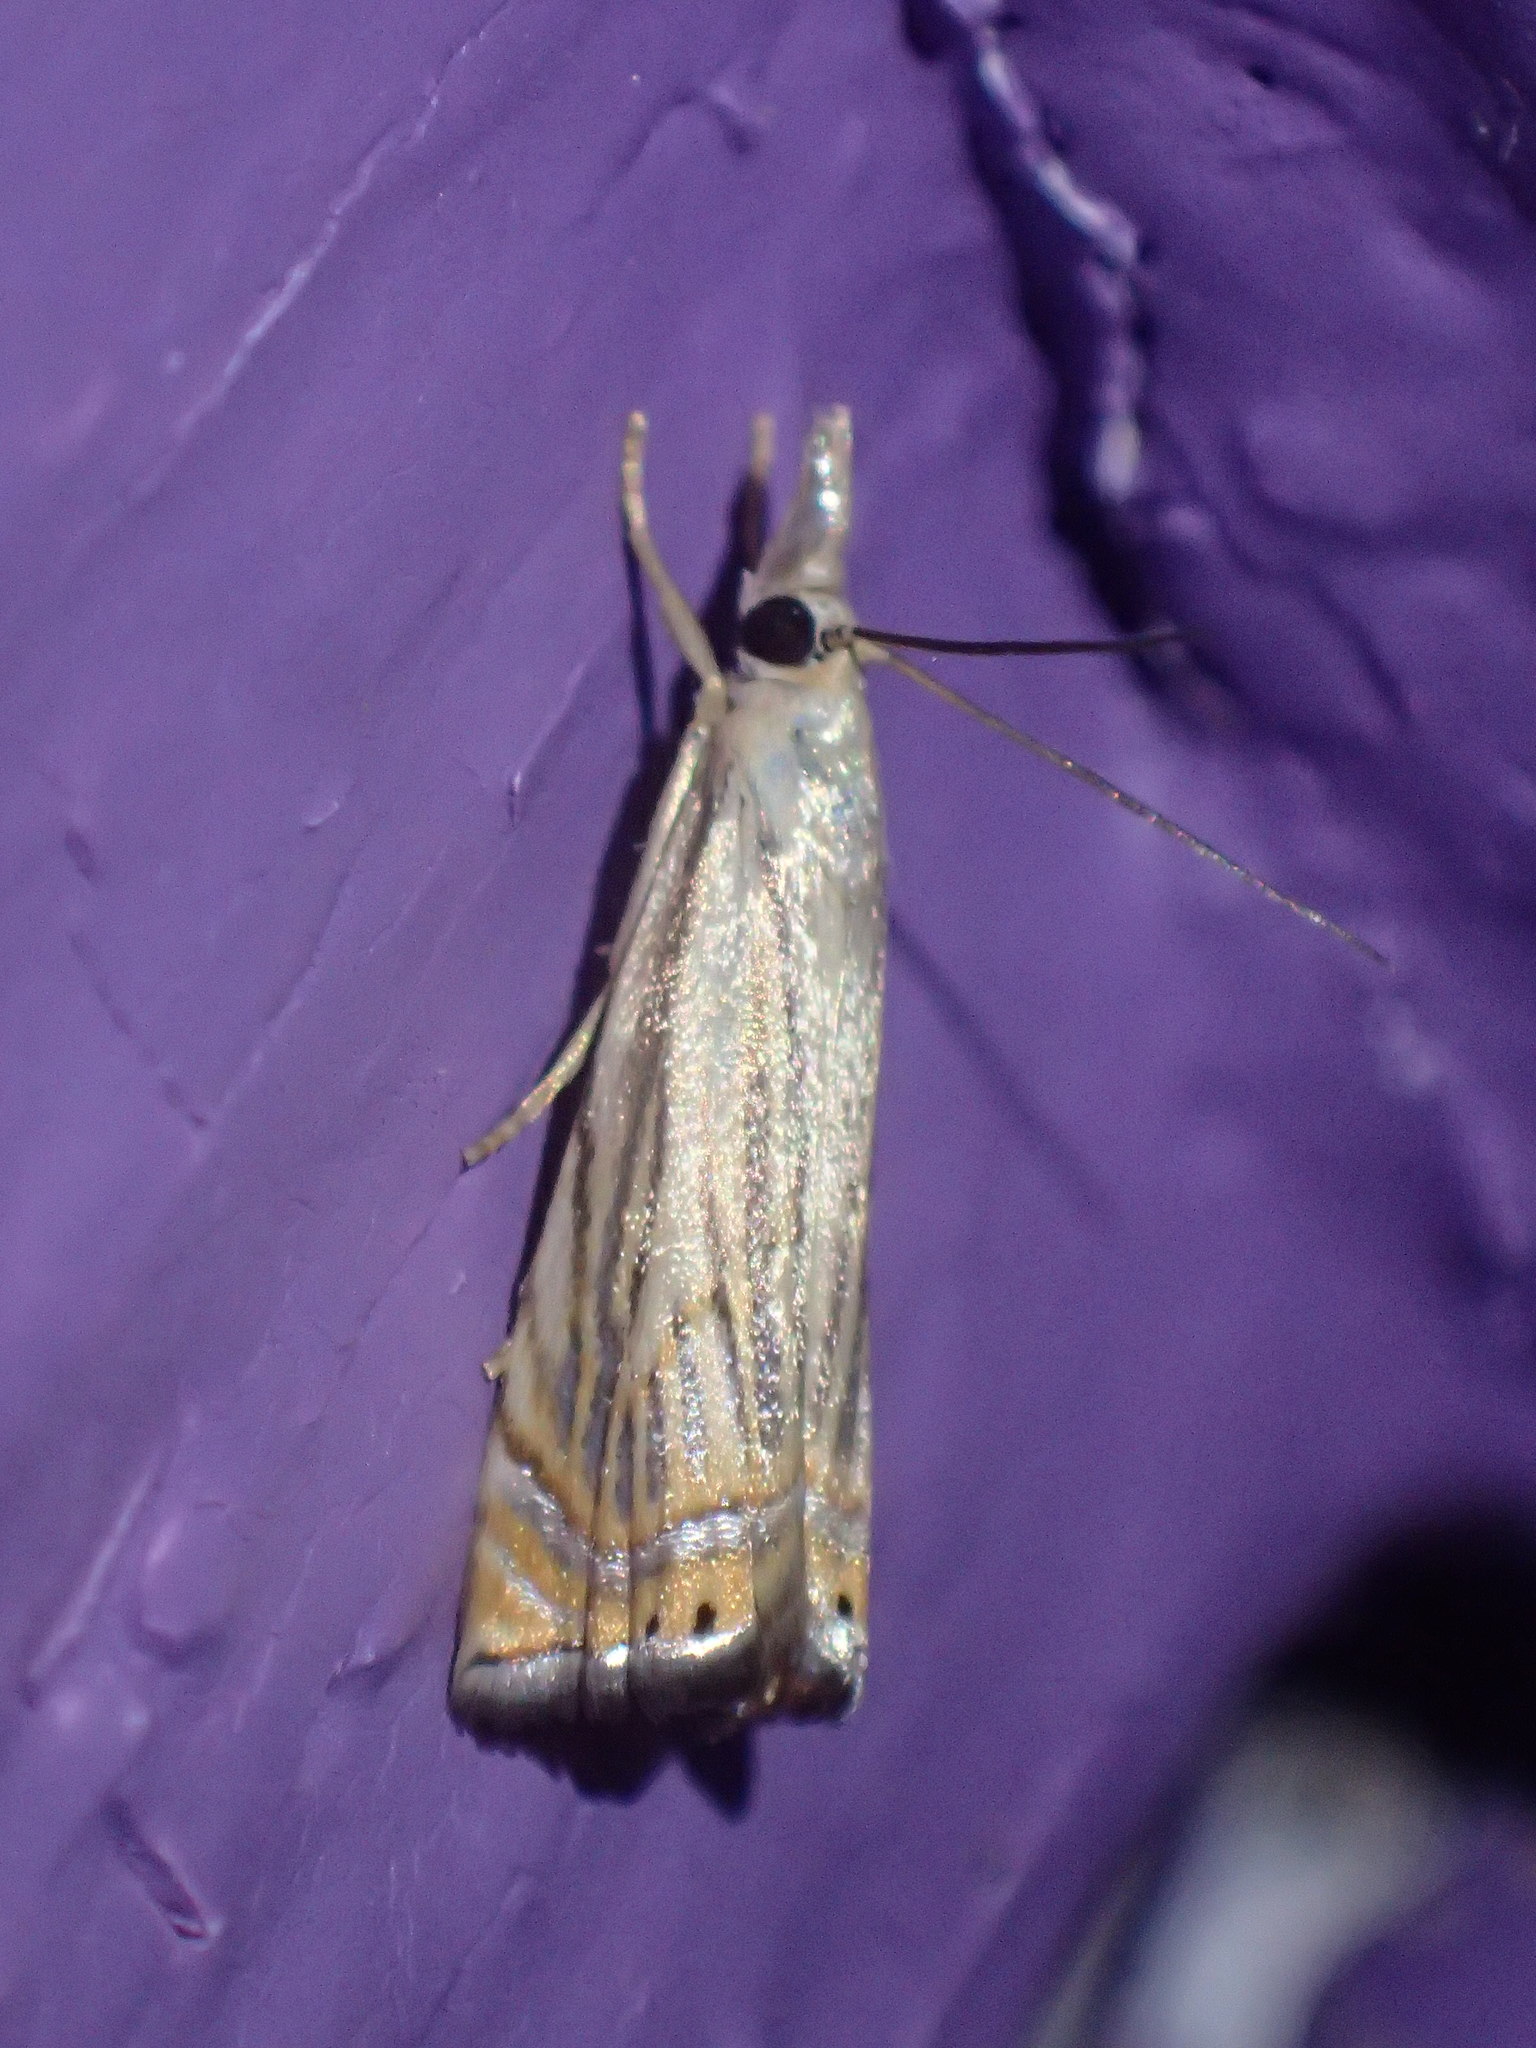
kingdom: Animalia
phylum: Arthropoda
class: Insecta
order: Lepidoptera
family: Crambidae
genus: Chrysoteuchia
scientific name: Chrysoteuchia topiarius
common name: Topiary grass-veneer
